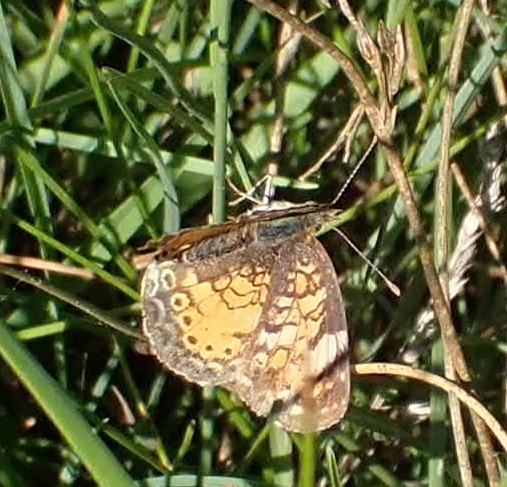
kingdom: Animalia
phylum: Arthropoda
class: Insecta
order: Lepidoptera
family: Nymphalidae
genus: Phyciodes
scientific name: Phyciodes tharos
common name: Pearl crescent
